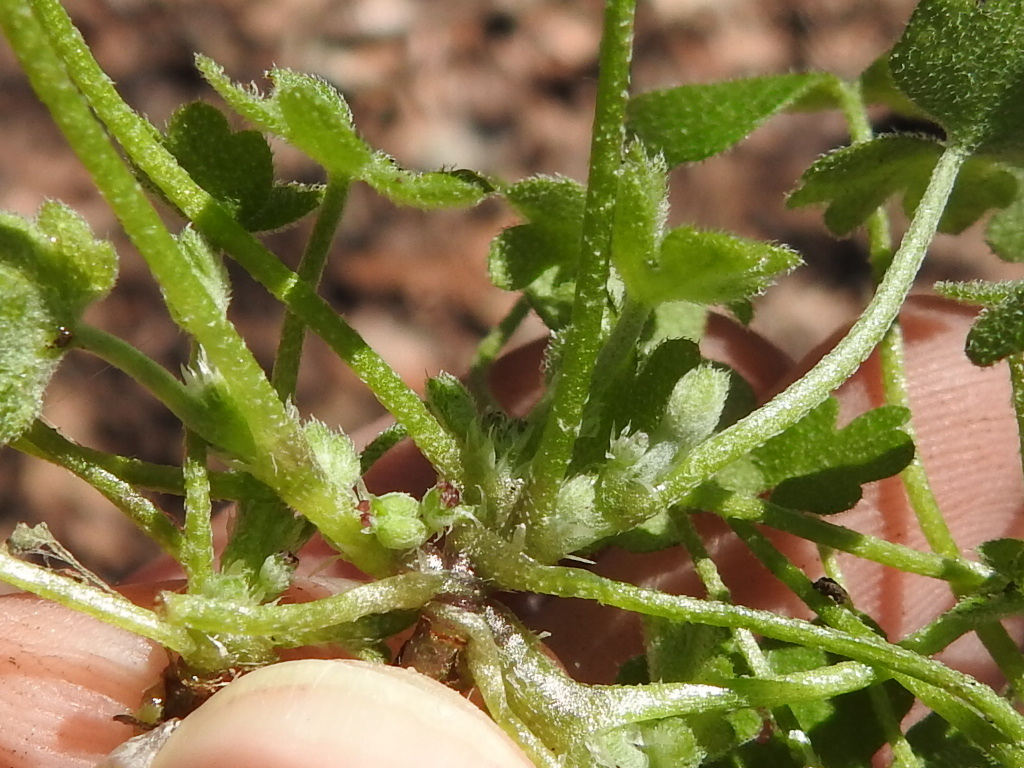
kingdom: Plantae
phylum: Tracheophyta
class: Magnoliopsida
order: Apiales
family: Apiaceae
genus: Bowlesia
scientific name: Bowlesia incana
